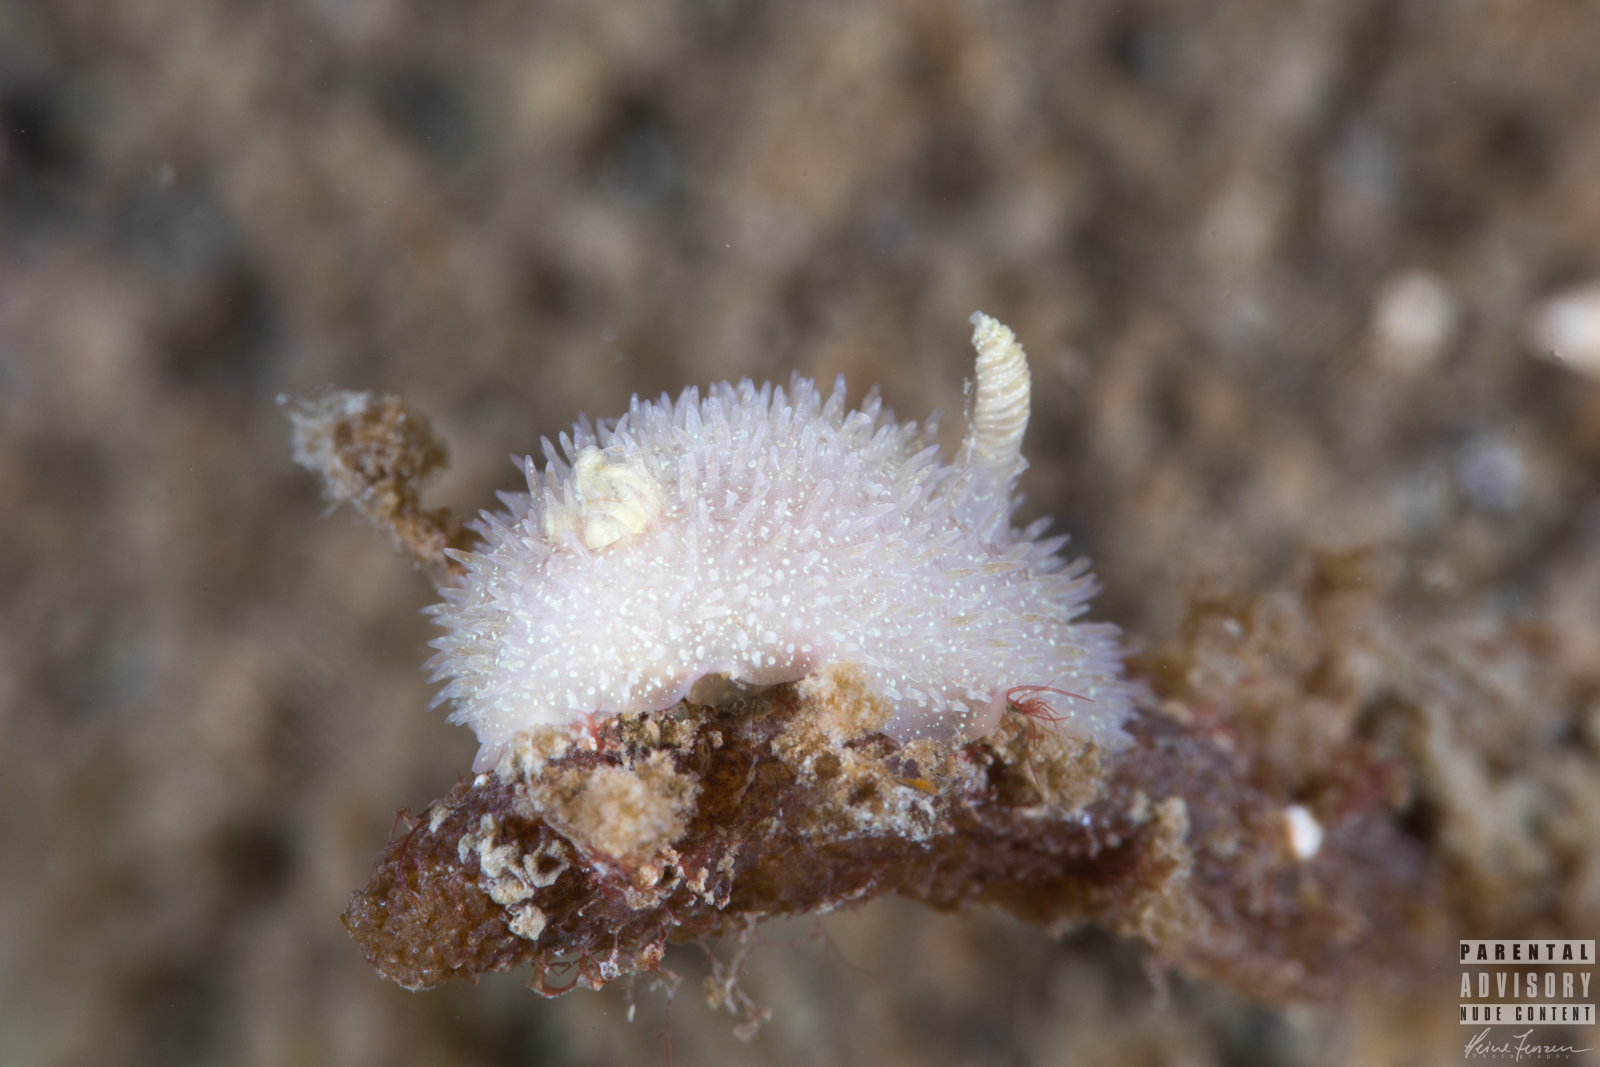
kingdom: Animalia
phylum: Mollusca
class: Gastropoda
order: Nudibranchia
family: Onchidorididae
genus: Acanthodoris
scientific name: Acanthodoris pilosa
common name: Hairy spiny doris
